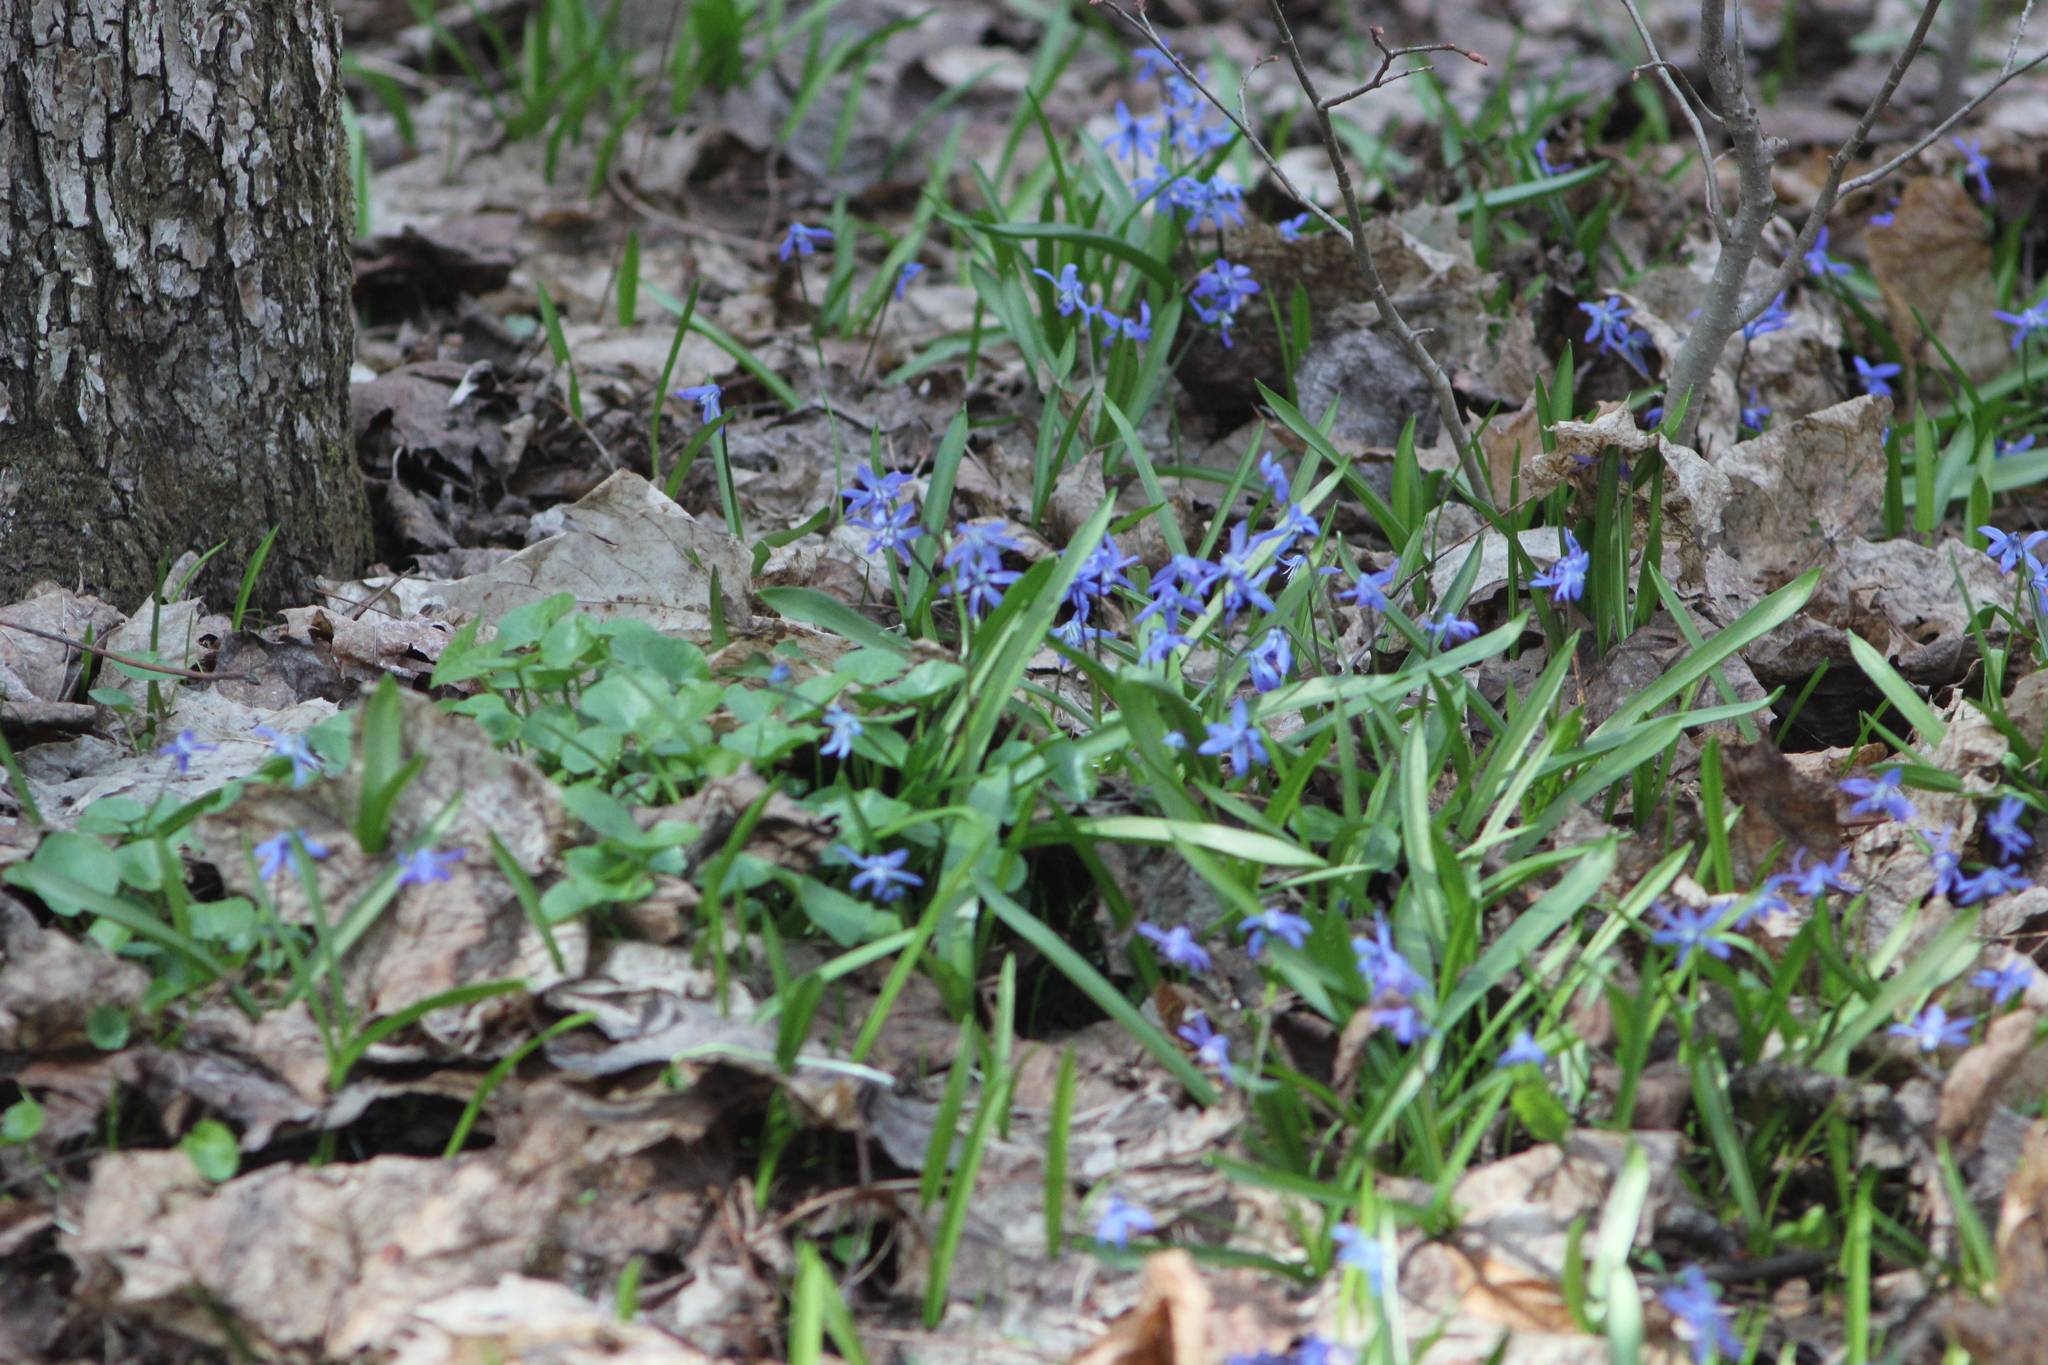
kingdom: Plantae
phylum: Tracheophyta
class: Liliopsida
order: Asparagales
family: Asparagaceae
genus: Scilla
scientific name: Scilla siberica
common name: Siberian squill
